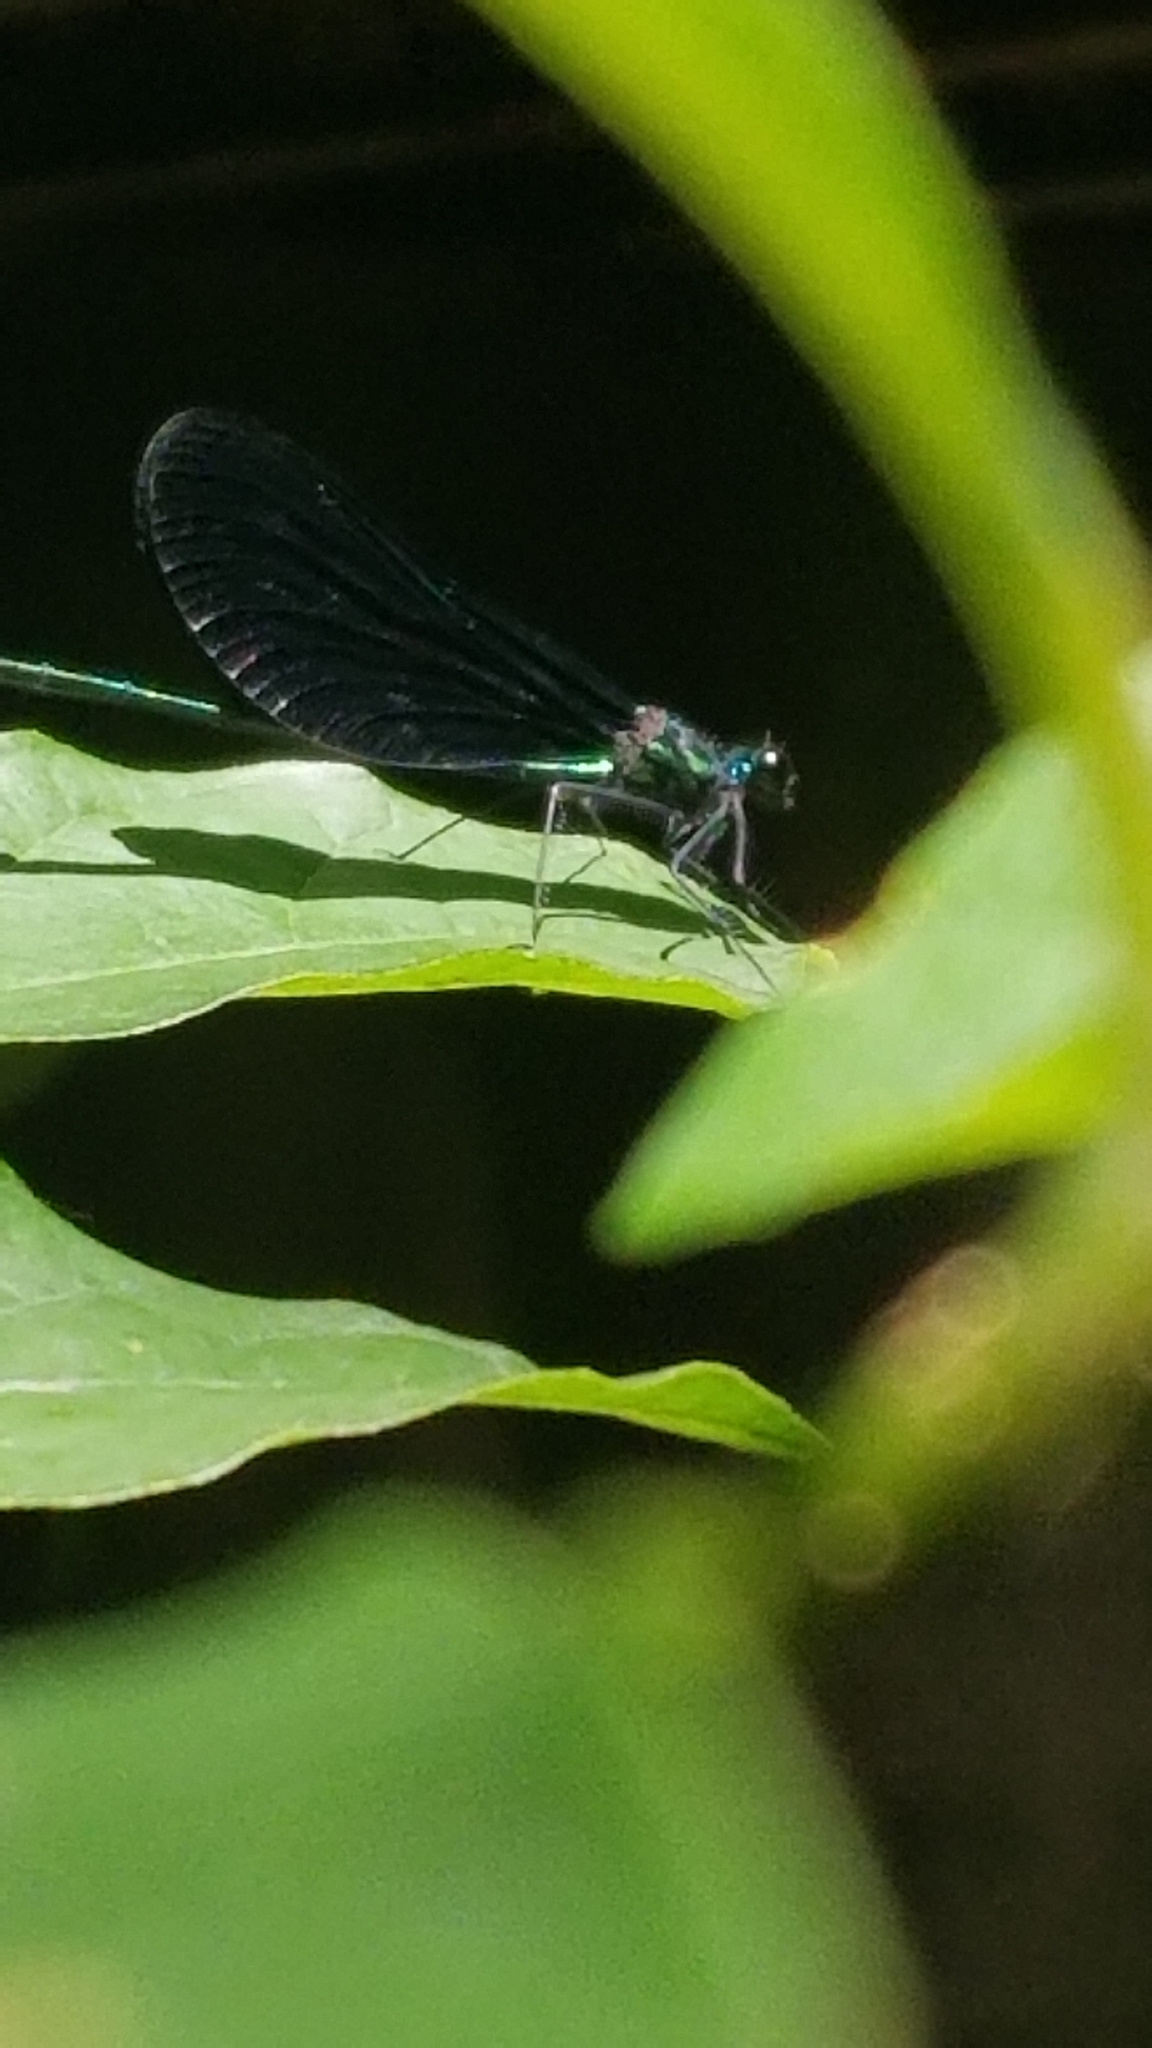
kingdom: Animalia
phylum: Arthropoda
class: Insecta
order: Odonata
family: Calopterygidae
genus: Calopteryx
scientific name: Calopteryx maculata
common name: Ebony jewelwing
